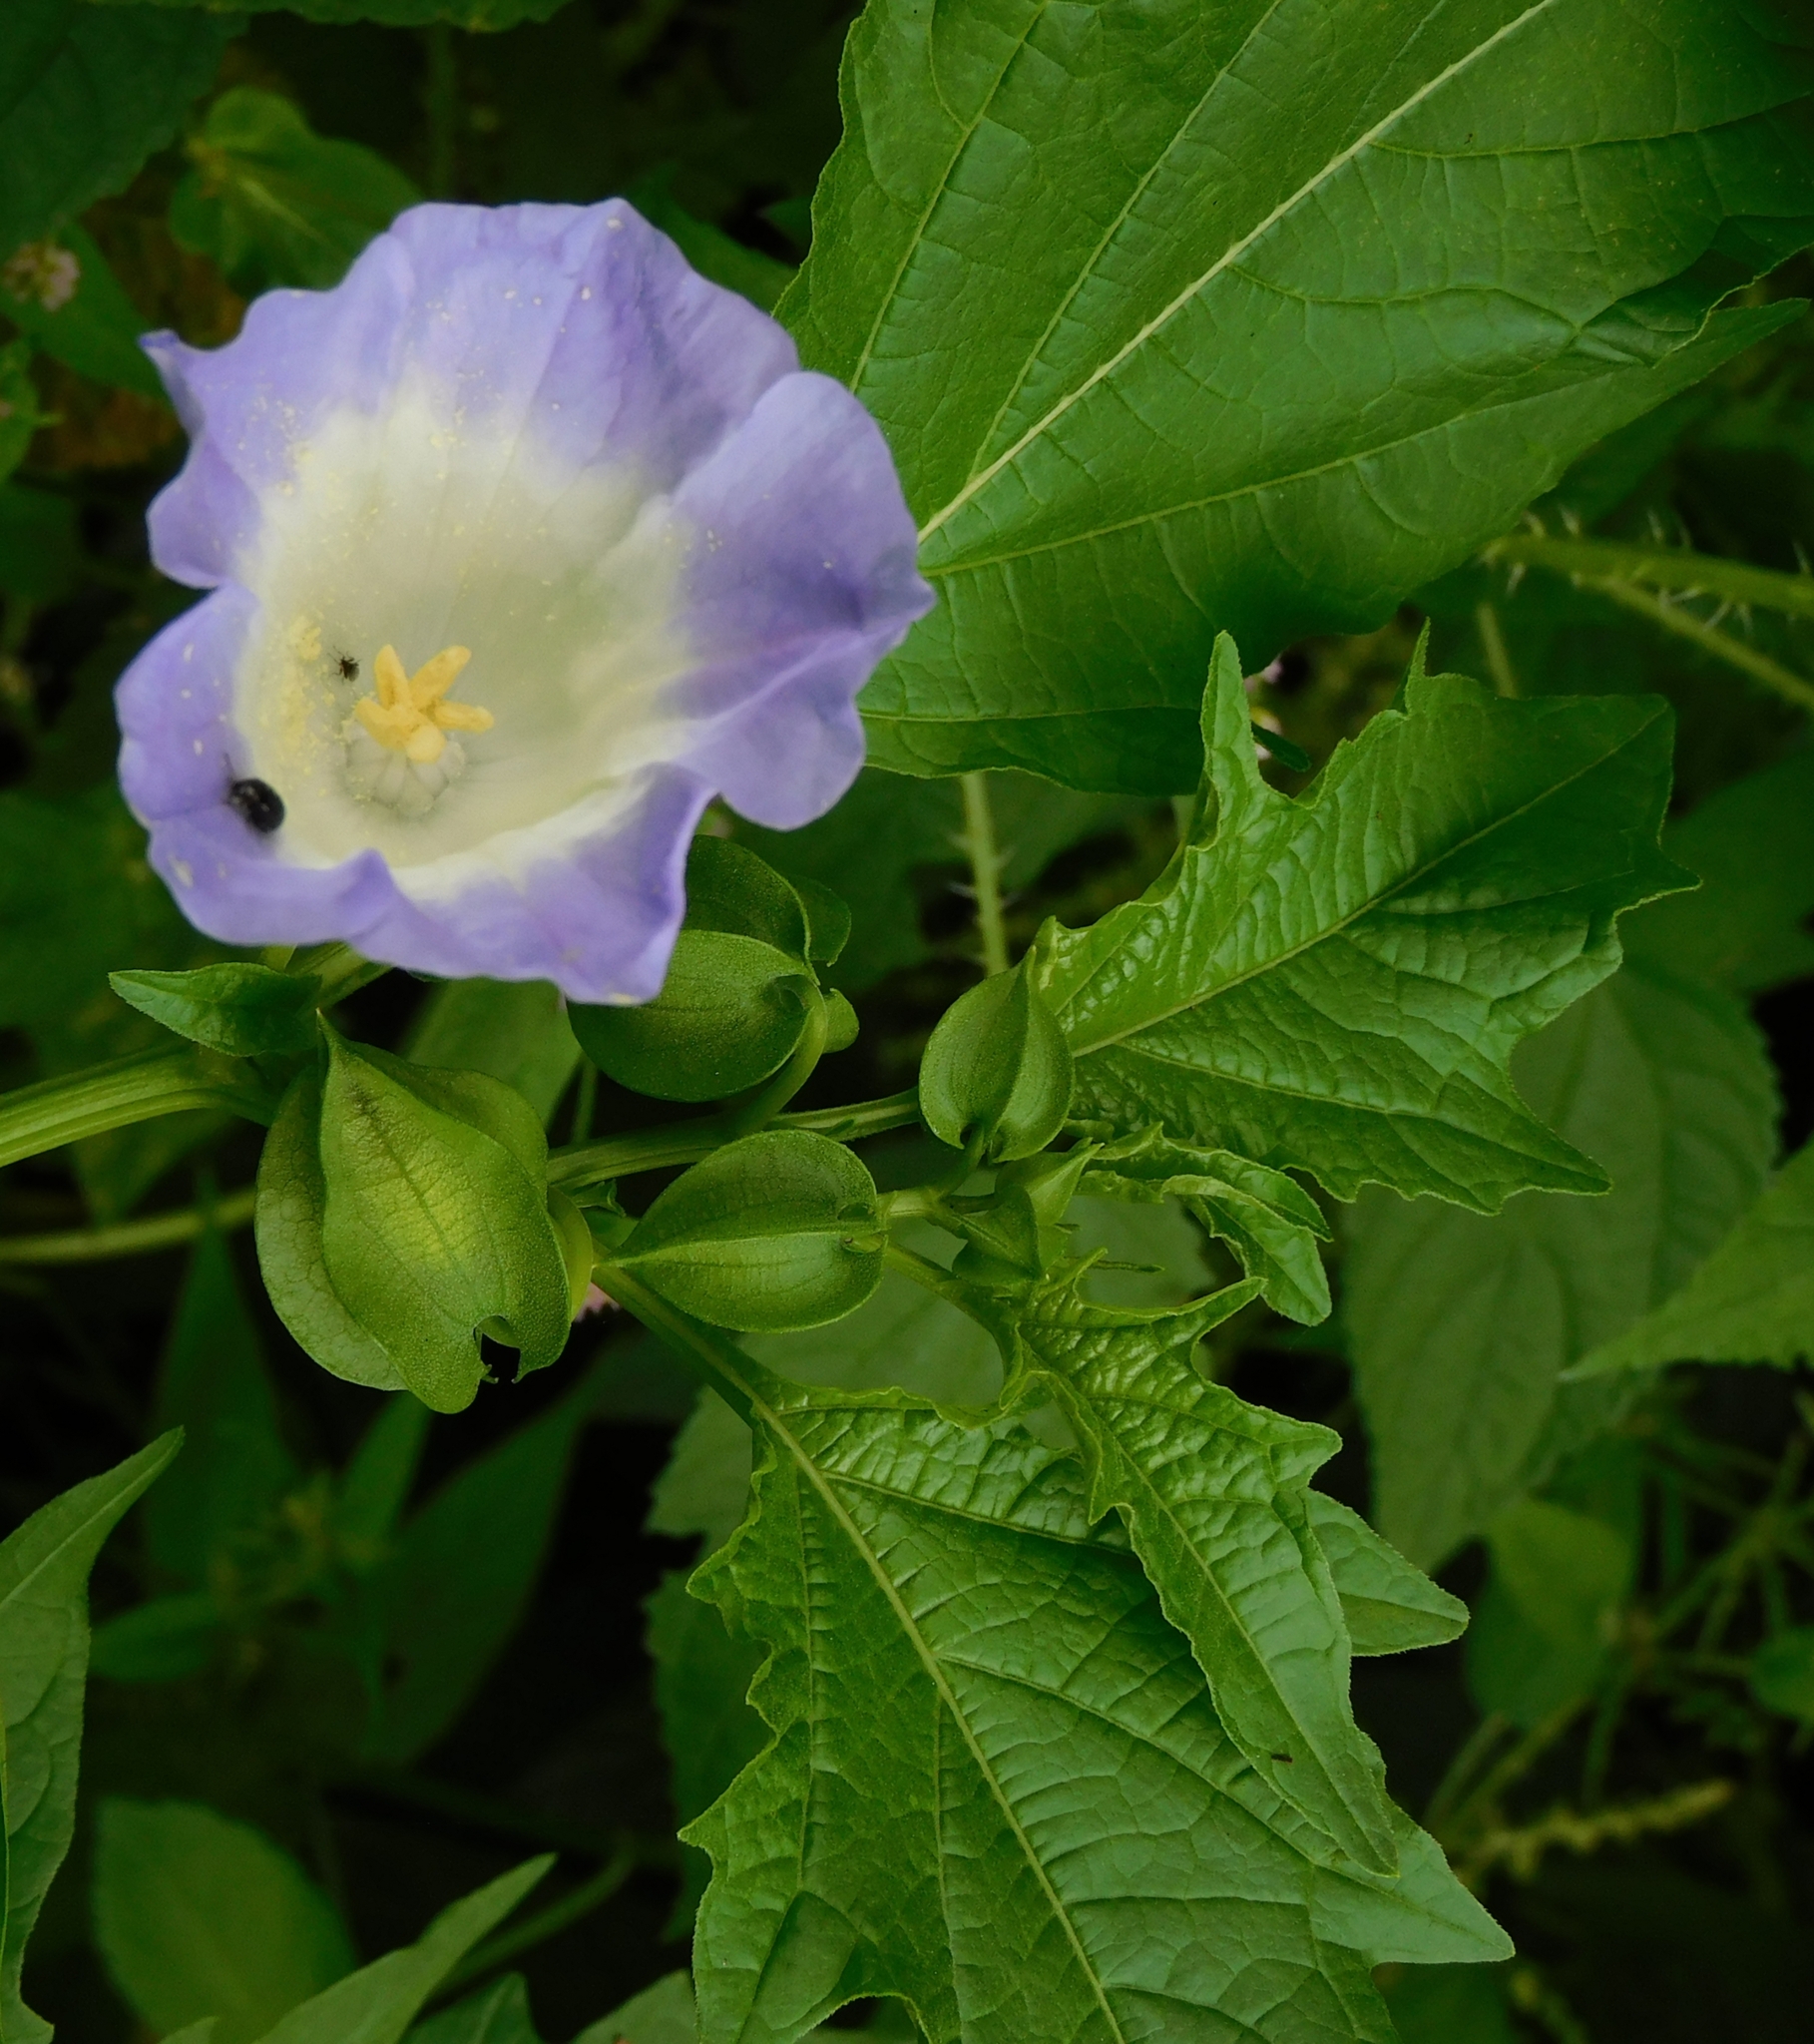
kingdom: Plantae
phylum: Tracheophyta
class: Magnoliopsida
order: Solanales
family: Solanaceae
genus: Nicandra
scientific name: Nicandra physalodes
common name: Apple-of-peru
